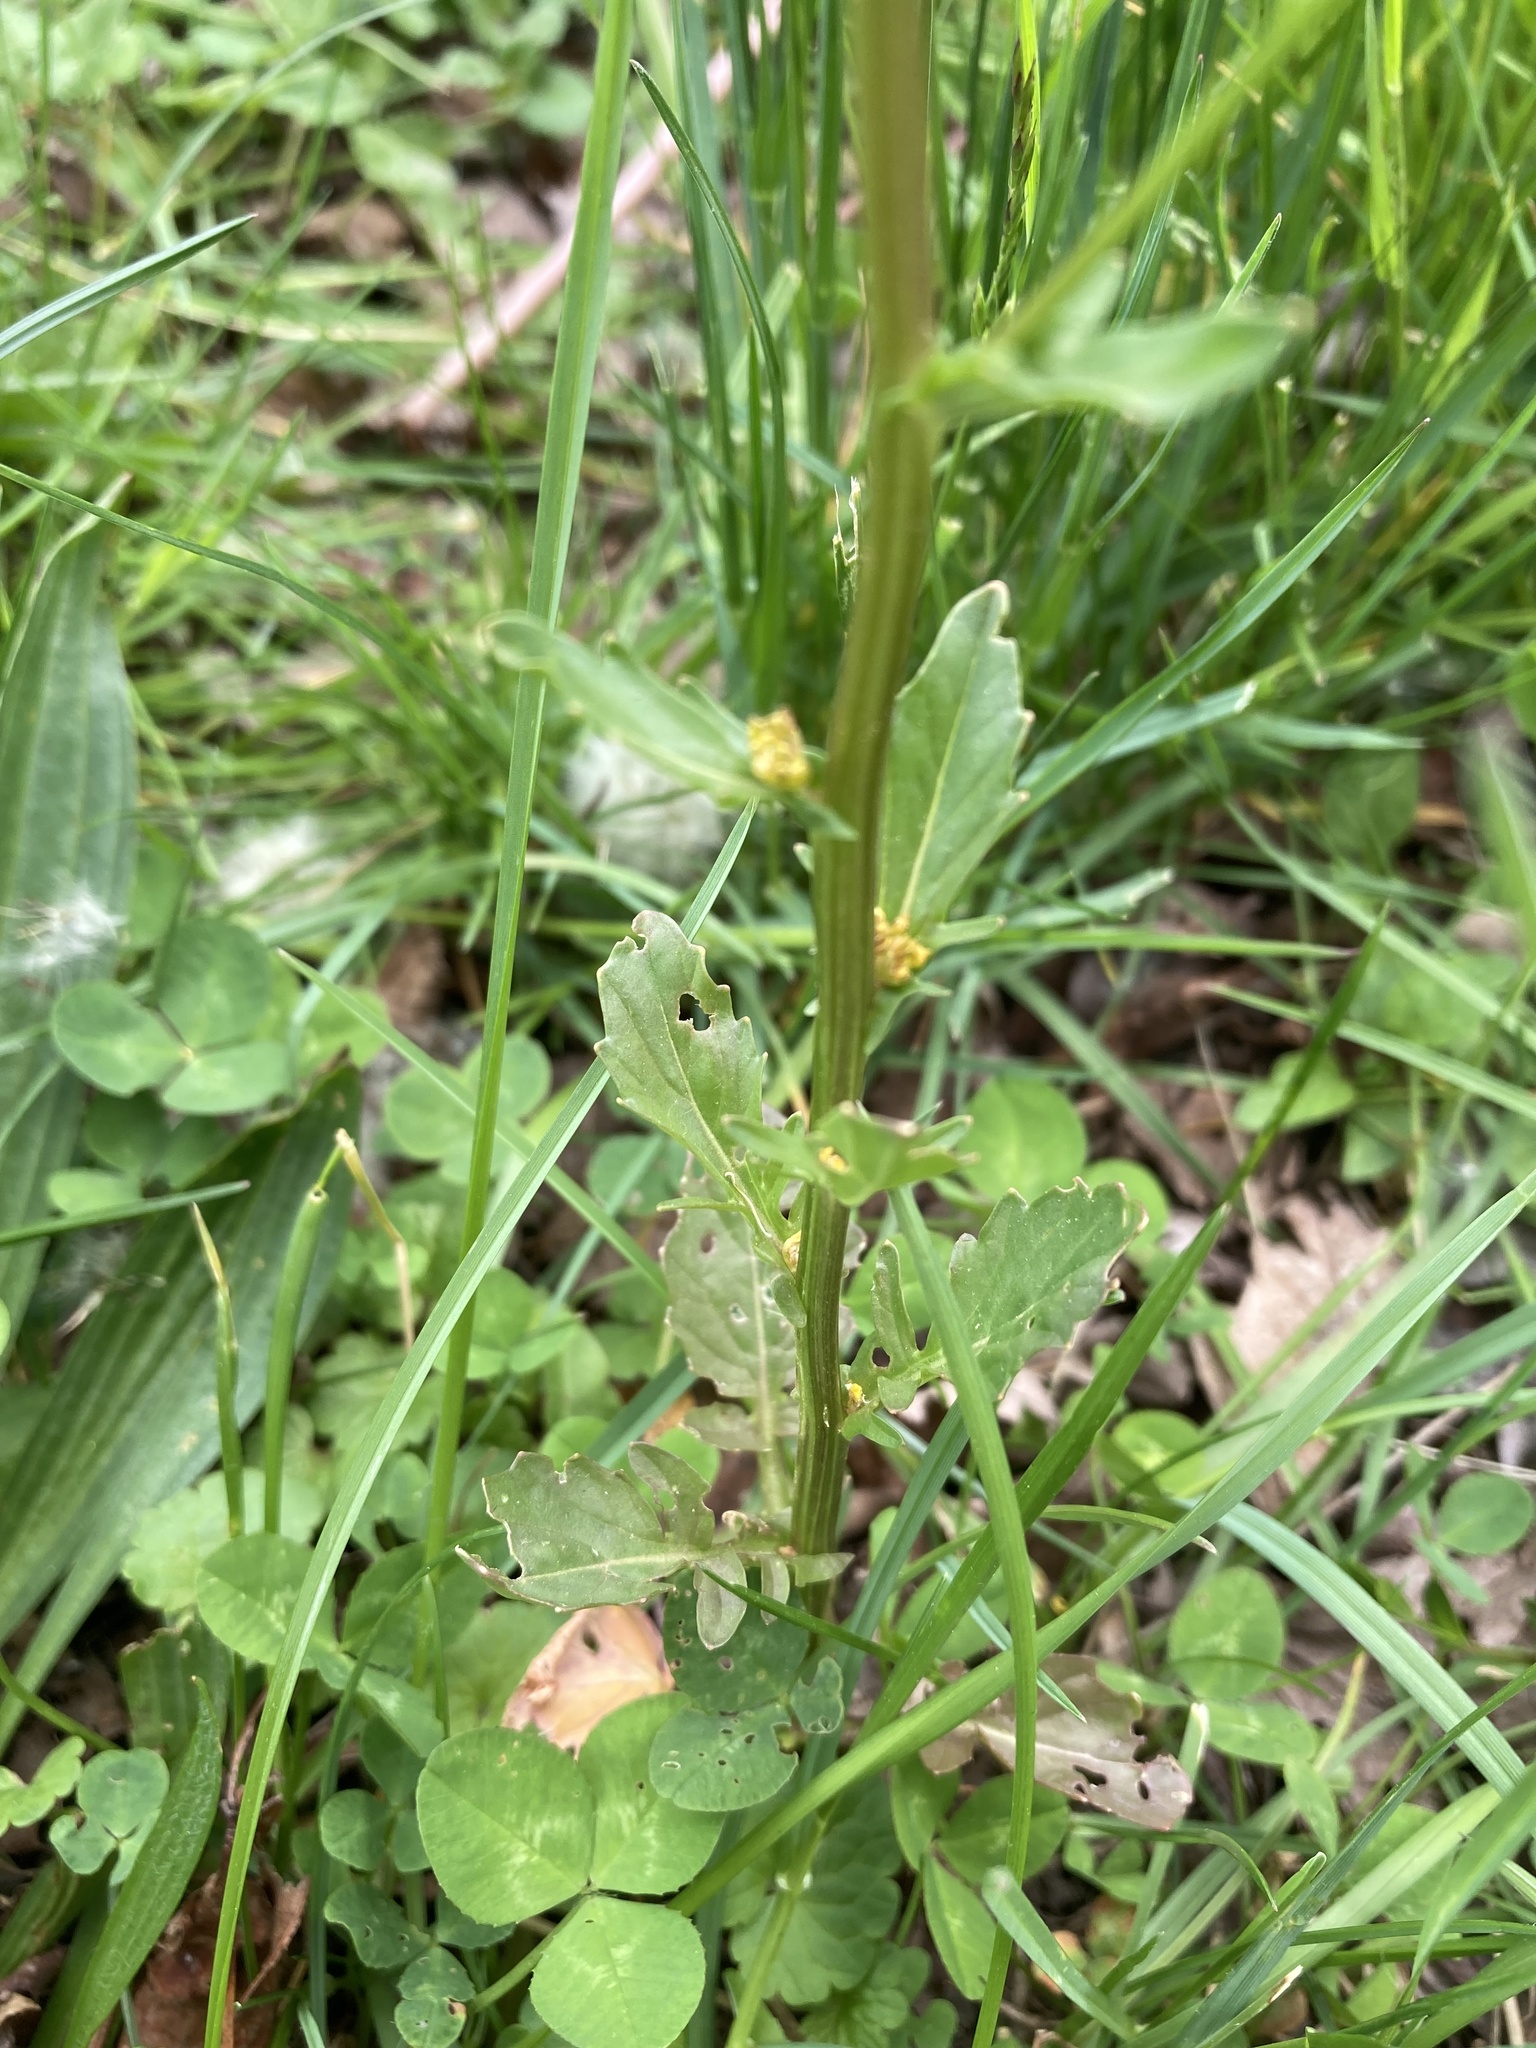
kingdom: Plantae
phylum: Tracheophyta
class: Magnoliopsida
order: Brassicales
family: Brassicaceae
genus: Barbarea
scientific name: Barbarea vulgaris
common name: Cressy-greens
